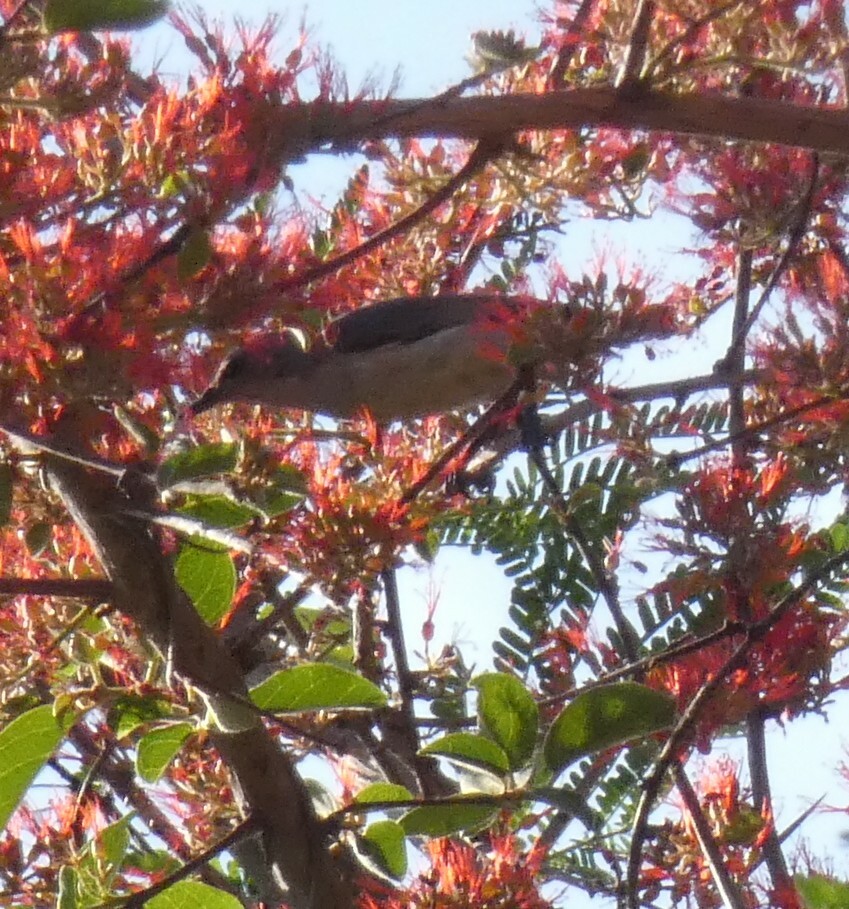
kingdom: Animalia
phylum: Chordata
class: Aves
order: Passeriformes
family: Malaconotidae
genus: Dryoscopus
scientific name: Dryoscopus cubla
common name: Black-backed puffback
